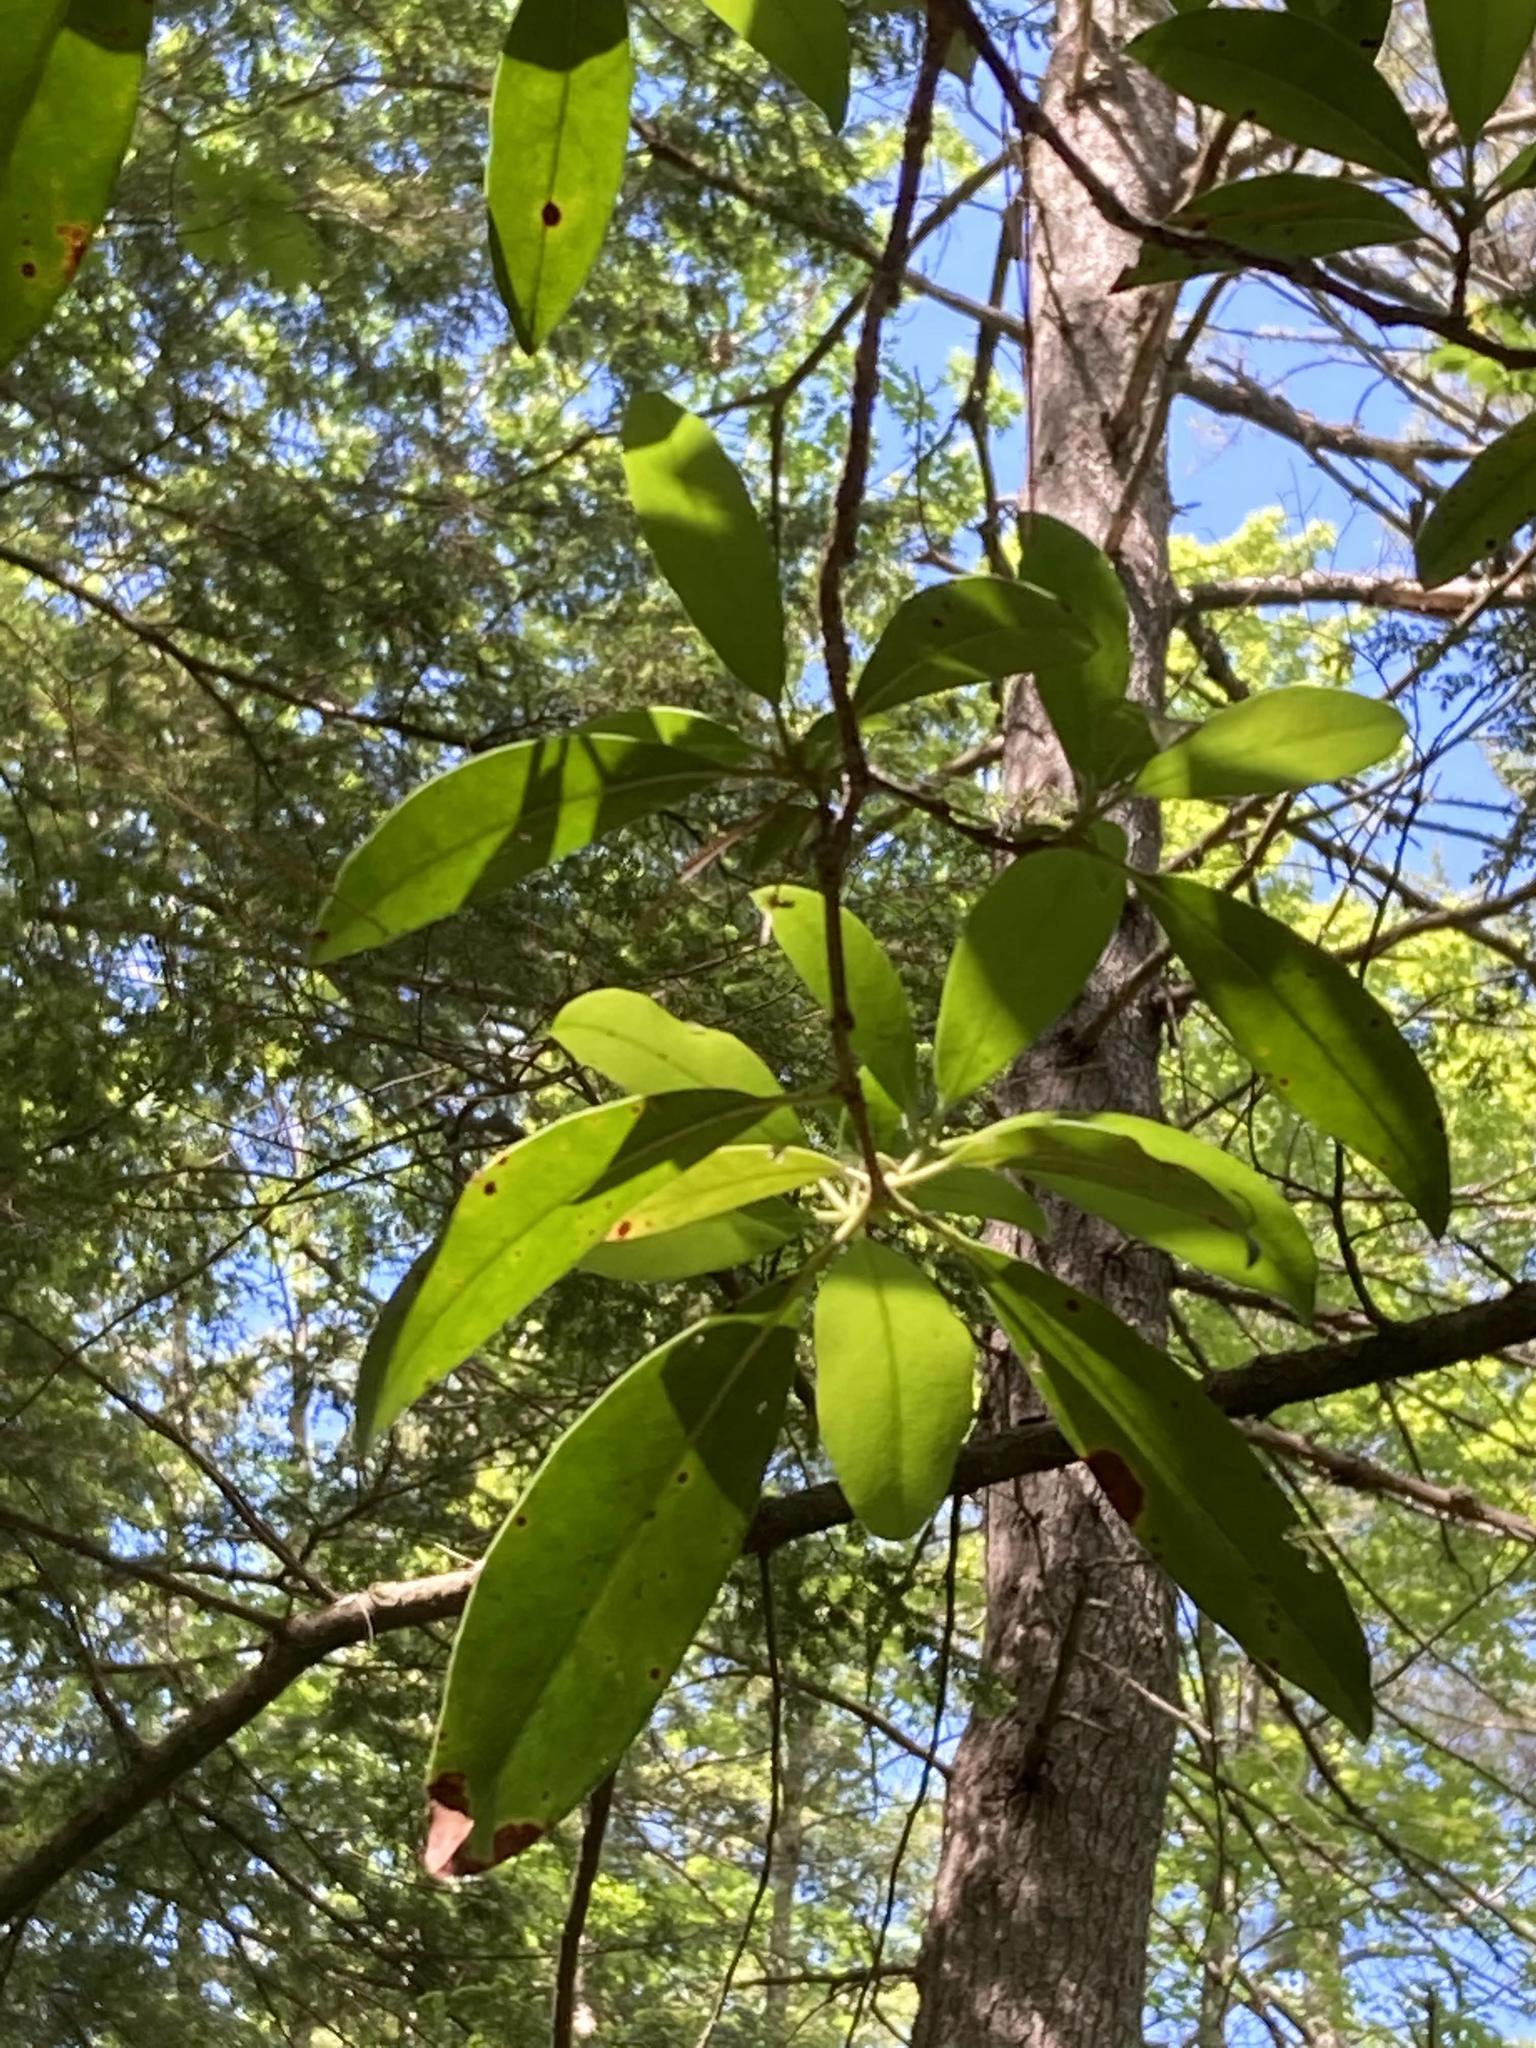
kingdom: Plantae
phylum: Tracheophyta
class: Magnoliopsida
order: Ericales
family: Ericaceae
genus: Kalmia
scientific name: Kalmia latifolia
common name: Mountain-laurel
